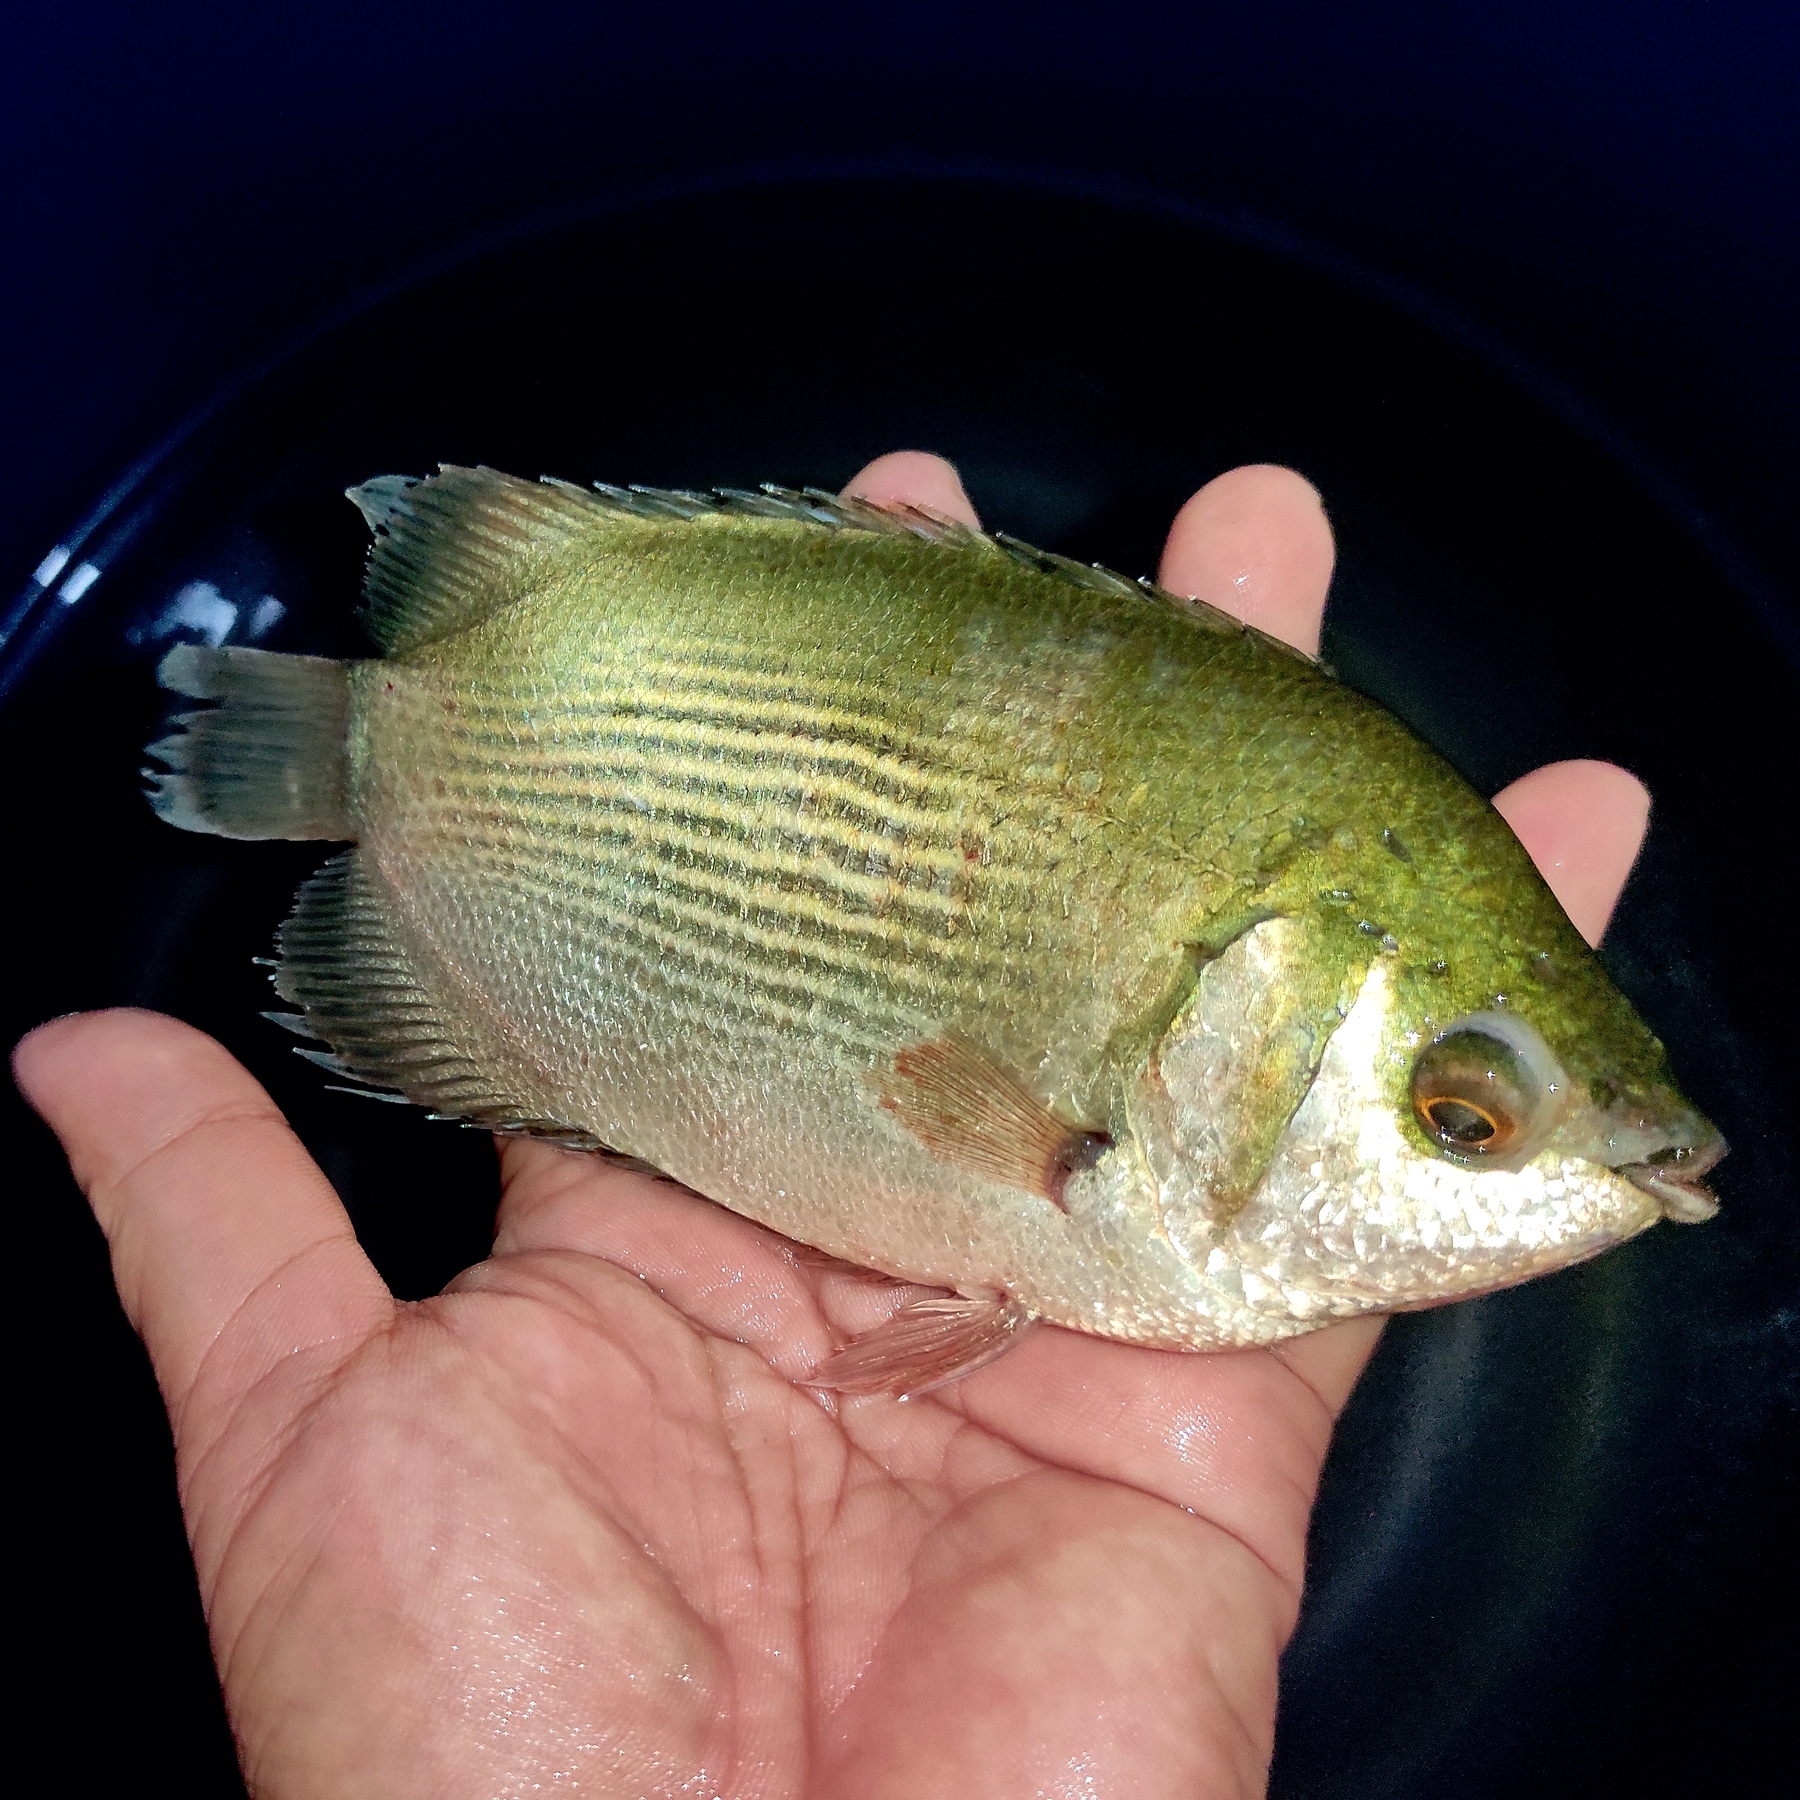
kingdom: Animalia
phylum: Chordata
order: Perciformes
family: Helostomatidae
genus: Helostoma
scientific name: Helostoma temminckii
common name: Kissing gourami
